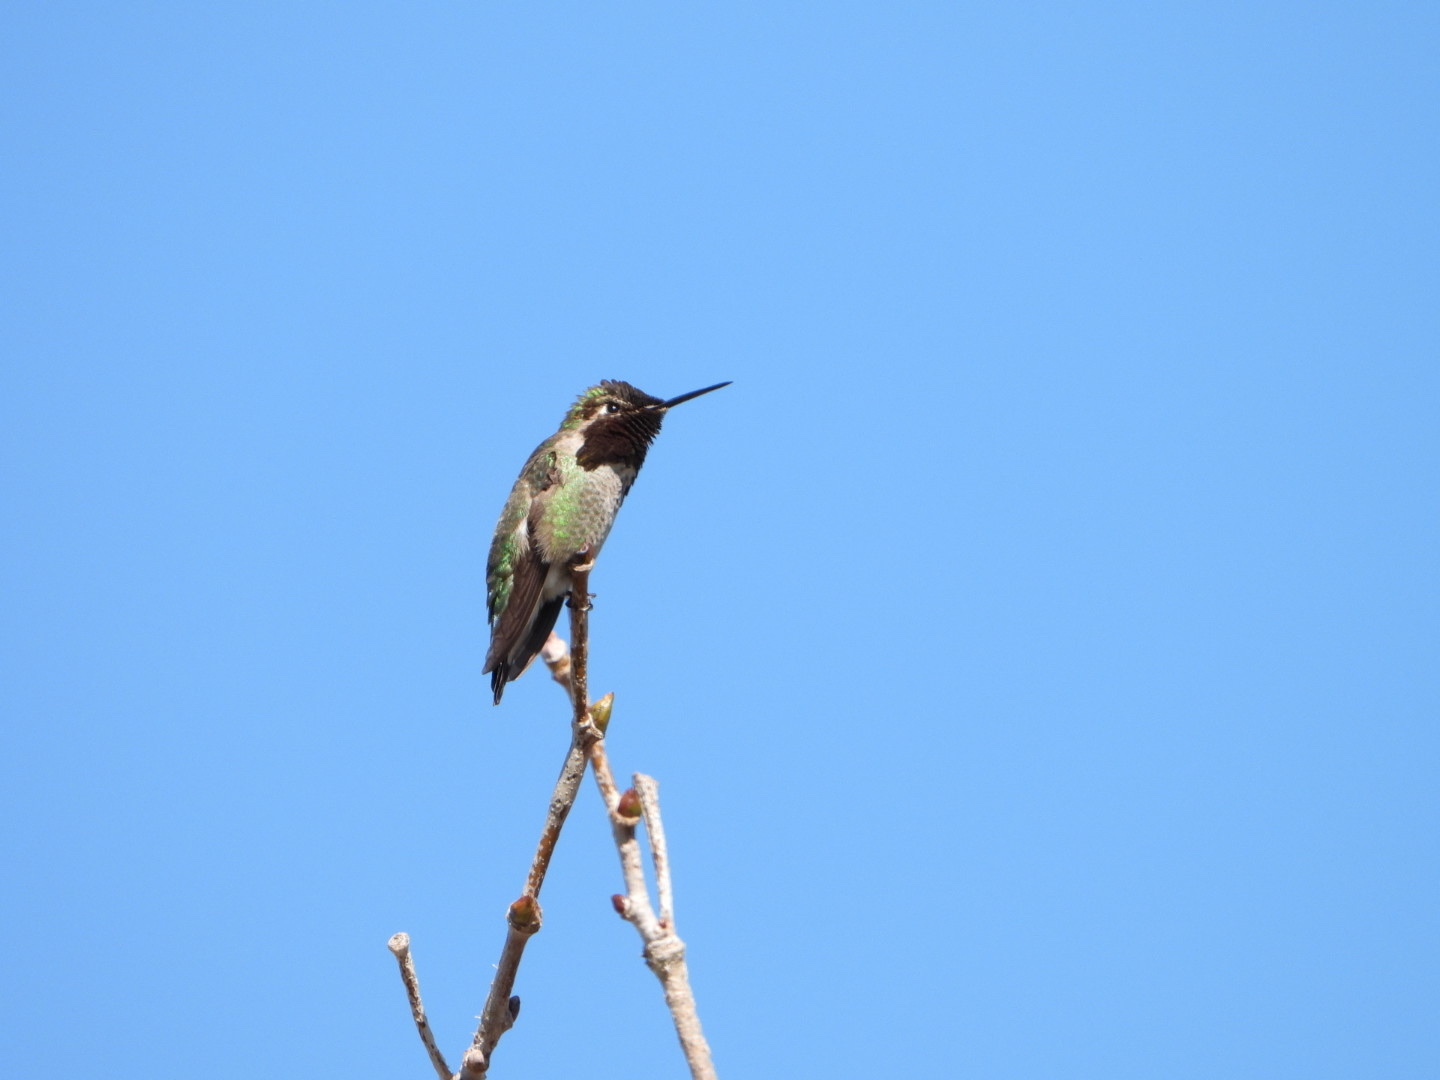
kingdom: Animalia
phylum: Chordata
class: Aves
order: Apodiformes
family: Trochilidae
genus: Calypte
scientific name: Calypte anna
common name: Anna's hummingbird
